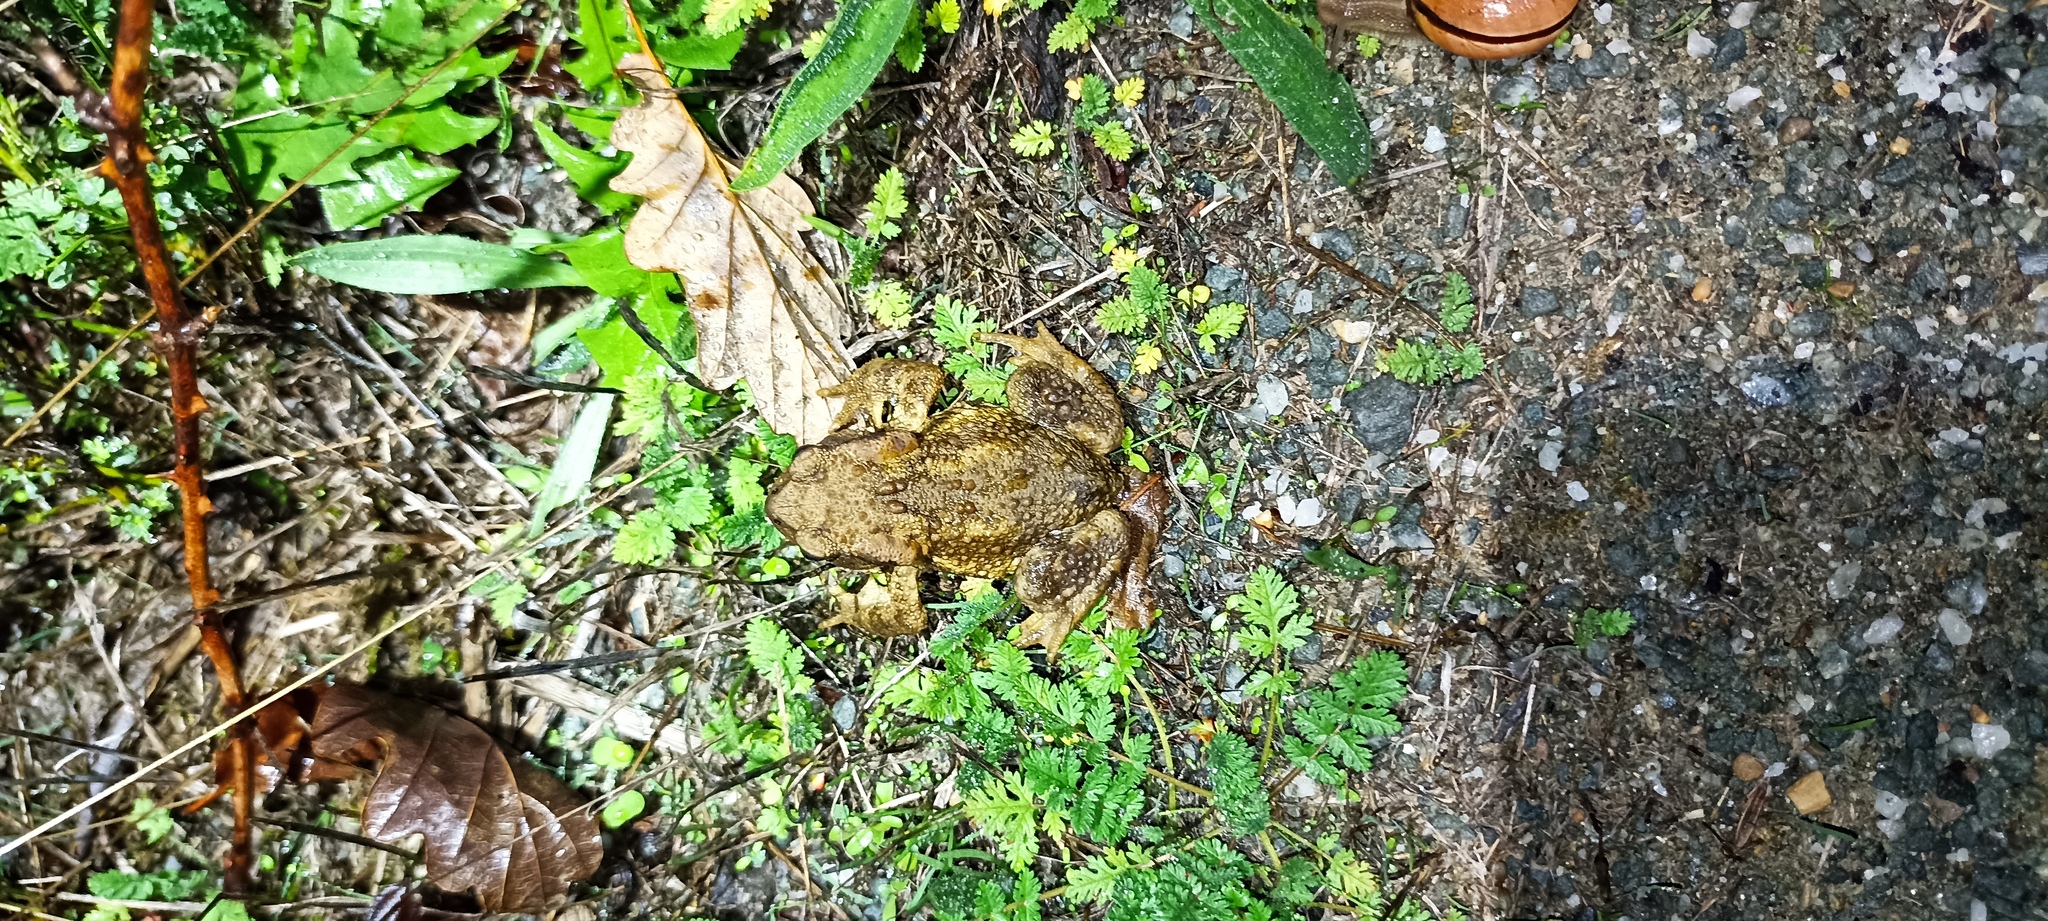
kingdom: Animalia
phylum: Chordata
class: Amphibia
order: Anura
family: Bufonidae
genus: Bufo
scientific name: Bufo spinosus
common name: Western common toad
